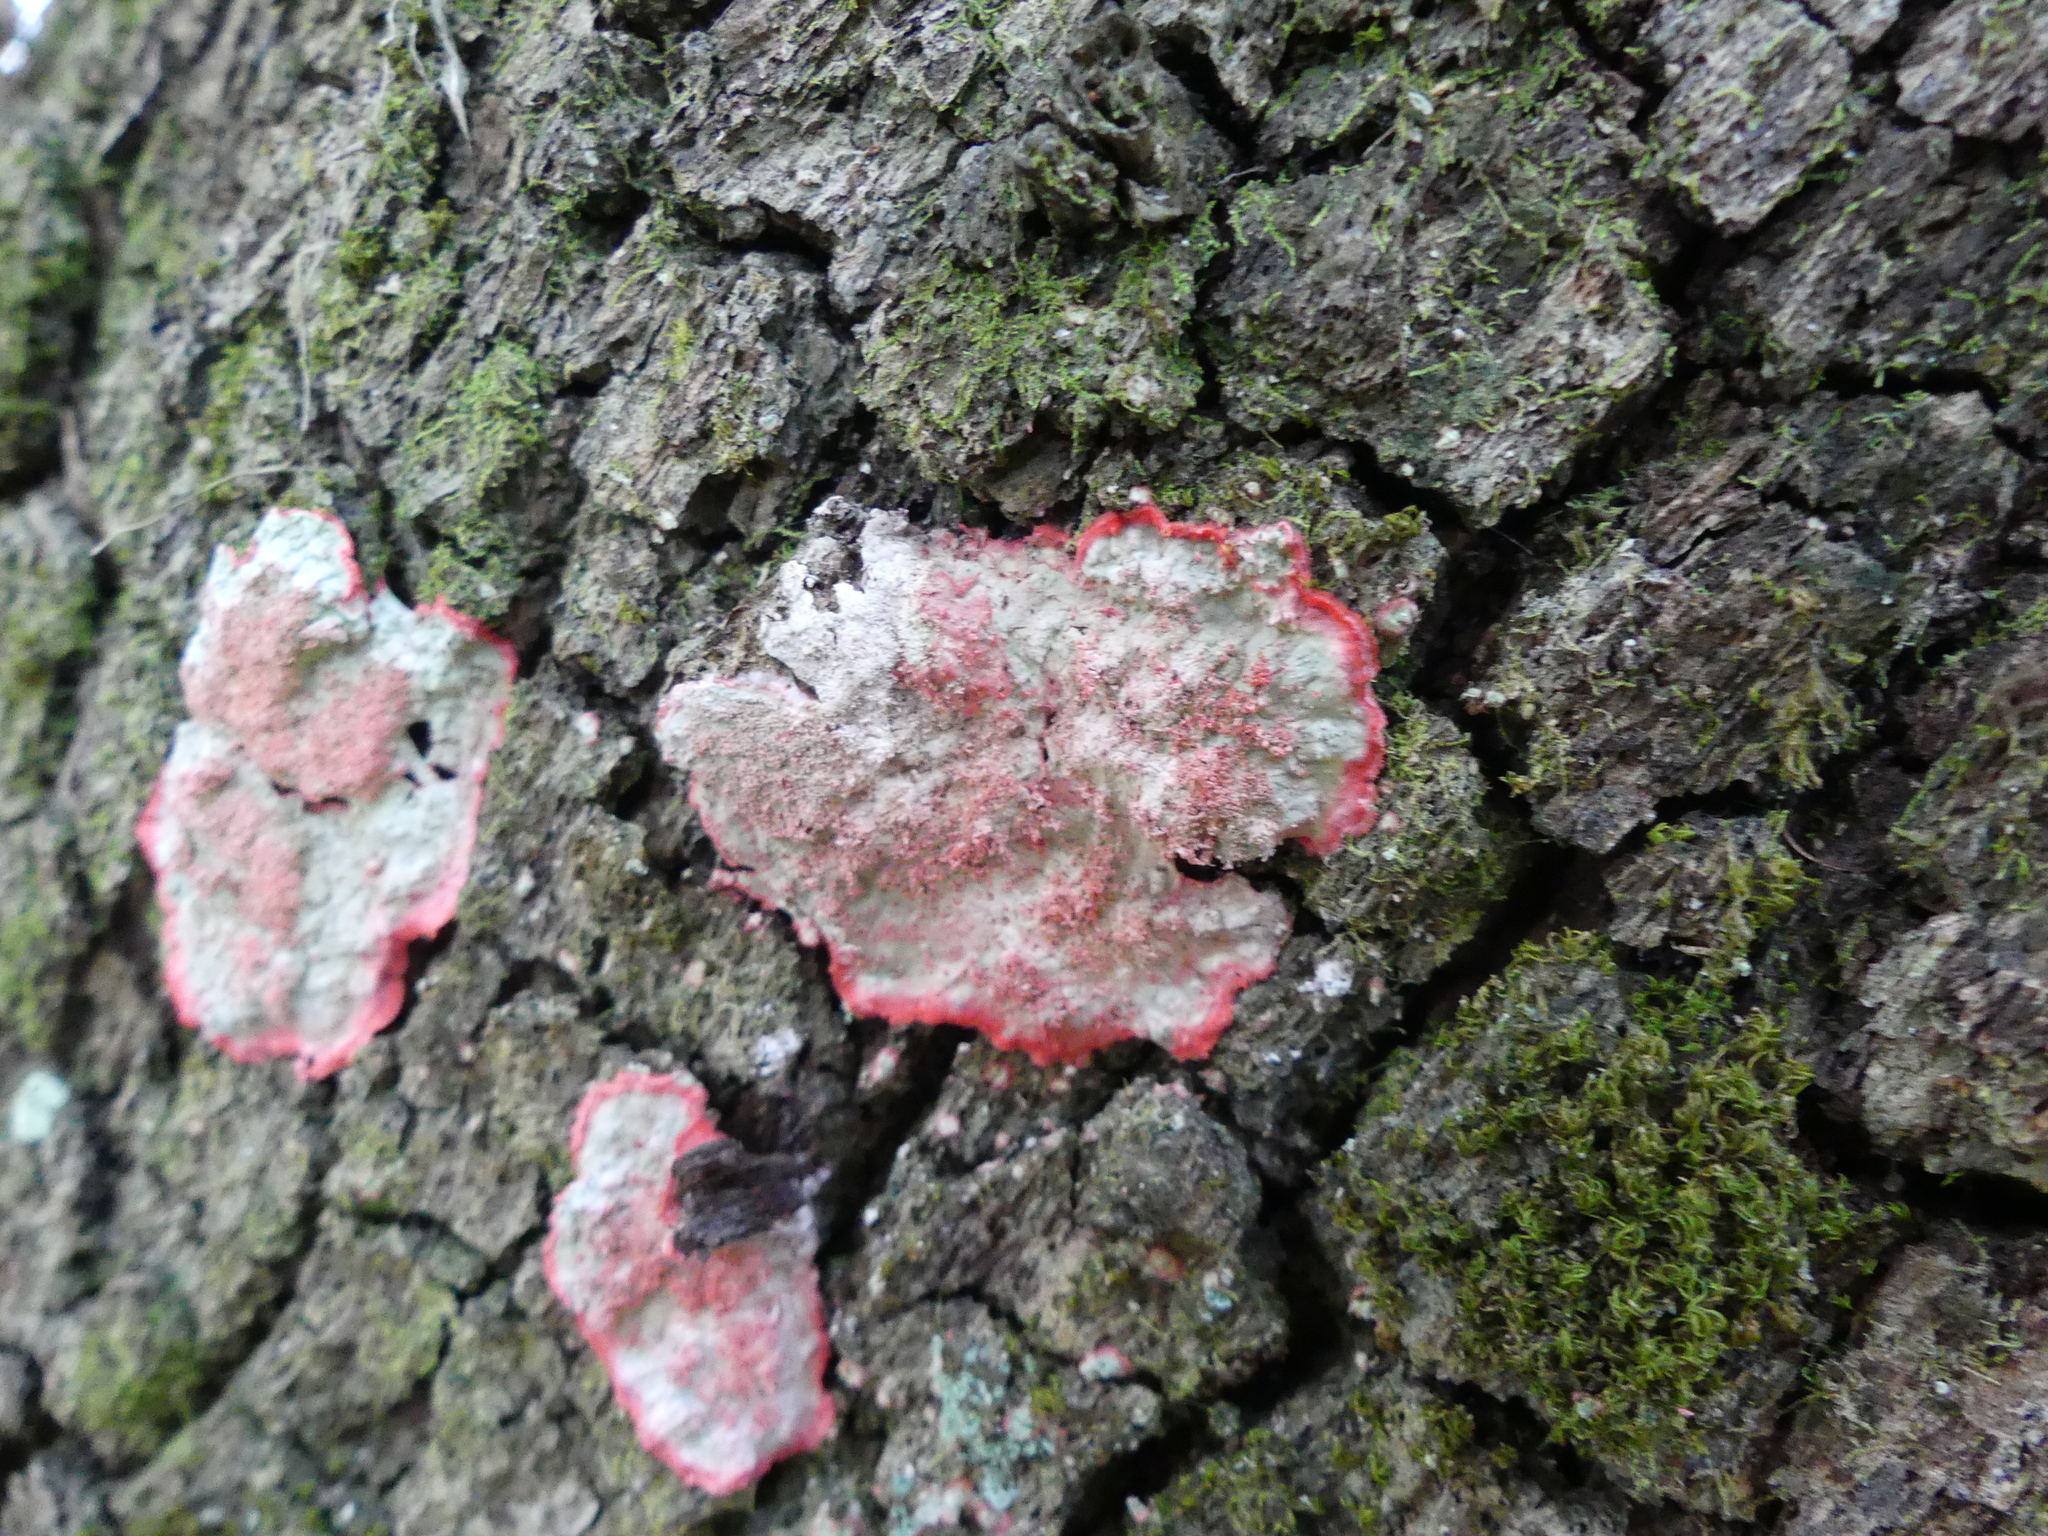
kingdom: Fungi
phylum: Ascomycota
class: Arthoniomycetes
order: Arthoniales
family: Arthoniaceae
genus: Herpothallon
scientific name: Herpothallon rubrocinctum
